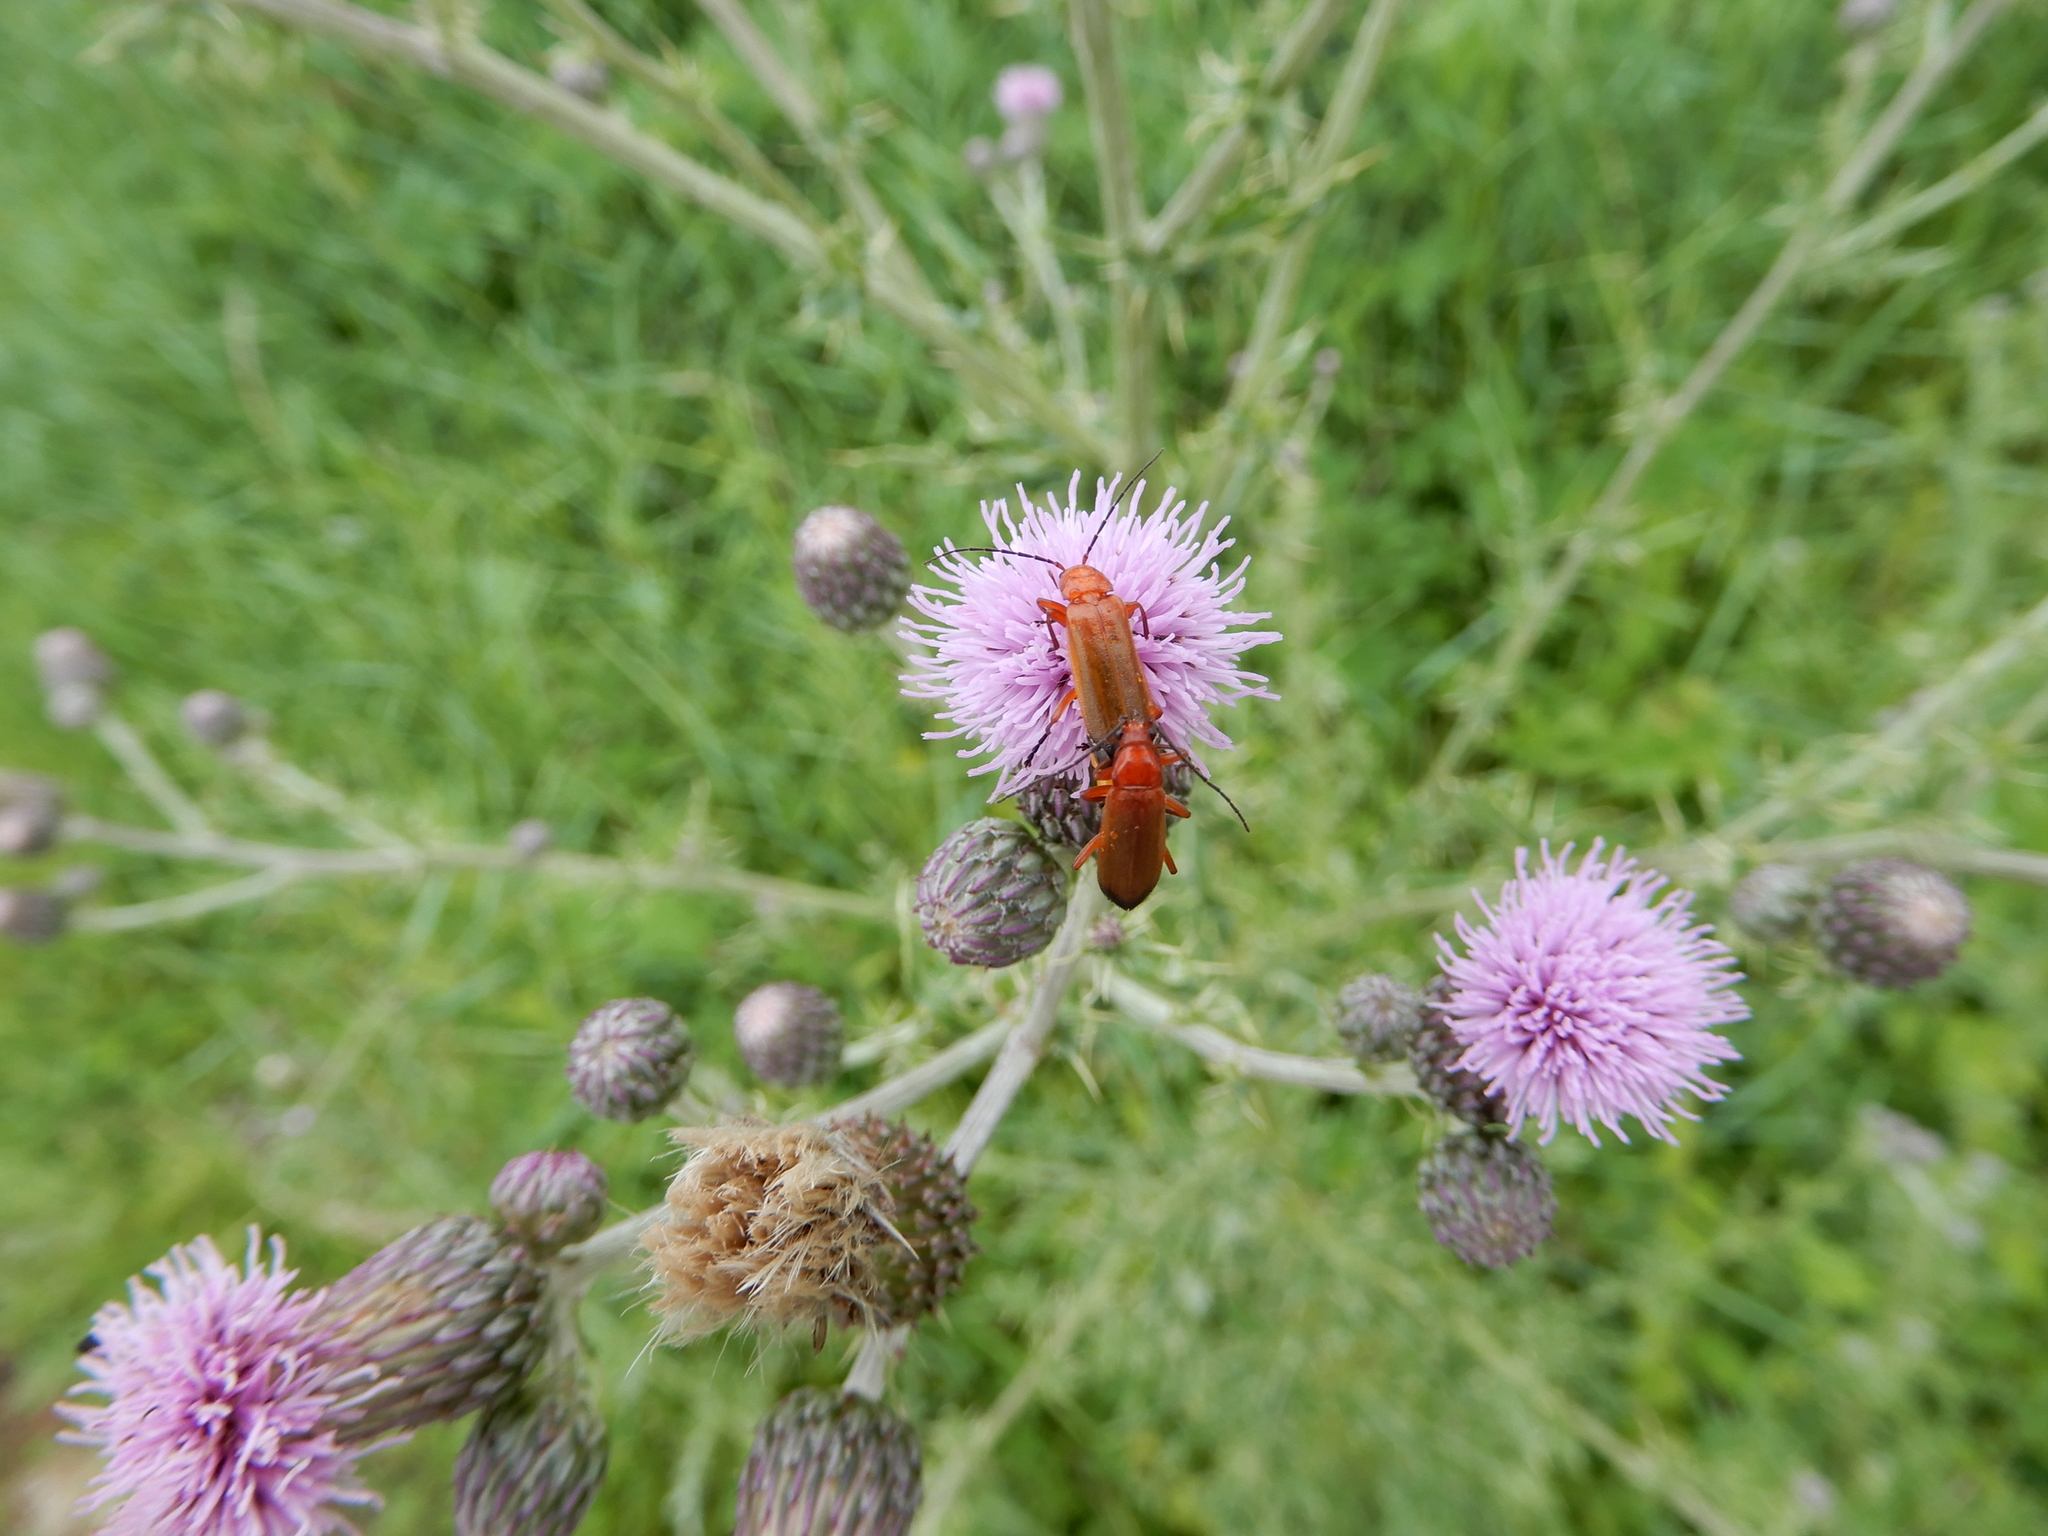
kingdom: Animalia
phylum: Arthropoda
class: Insecta
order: Coleoptera
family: Cantharidae
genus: Rhagonycha
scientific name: Rhagonycha fulva
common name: Common red soldier beetle
